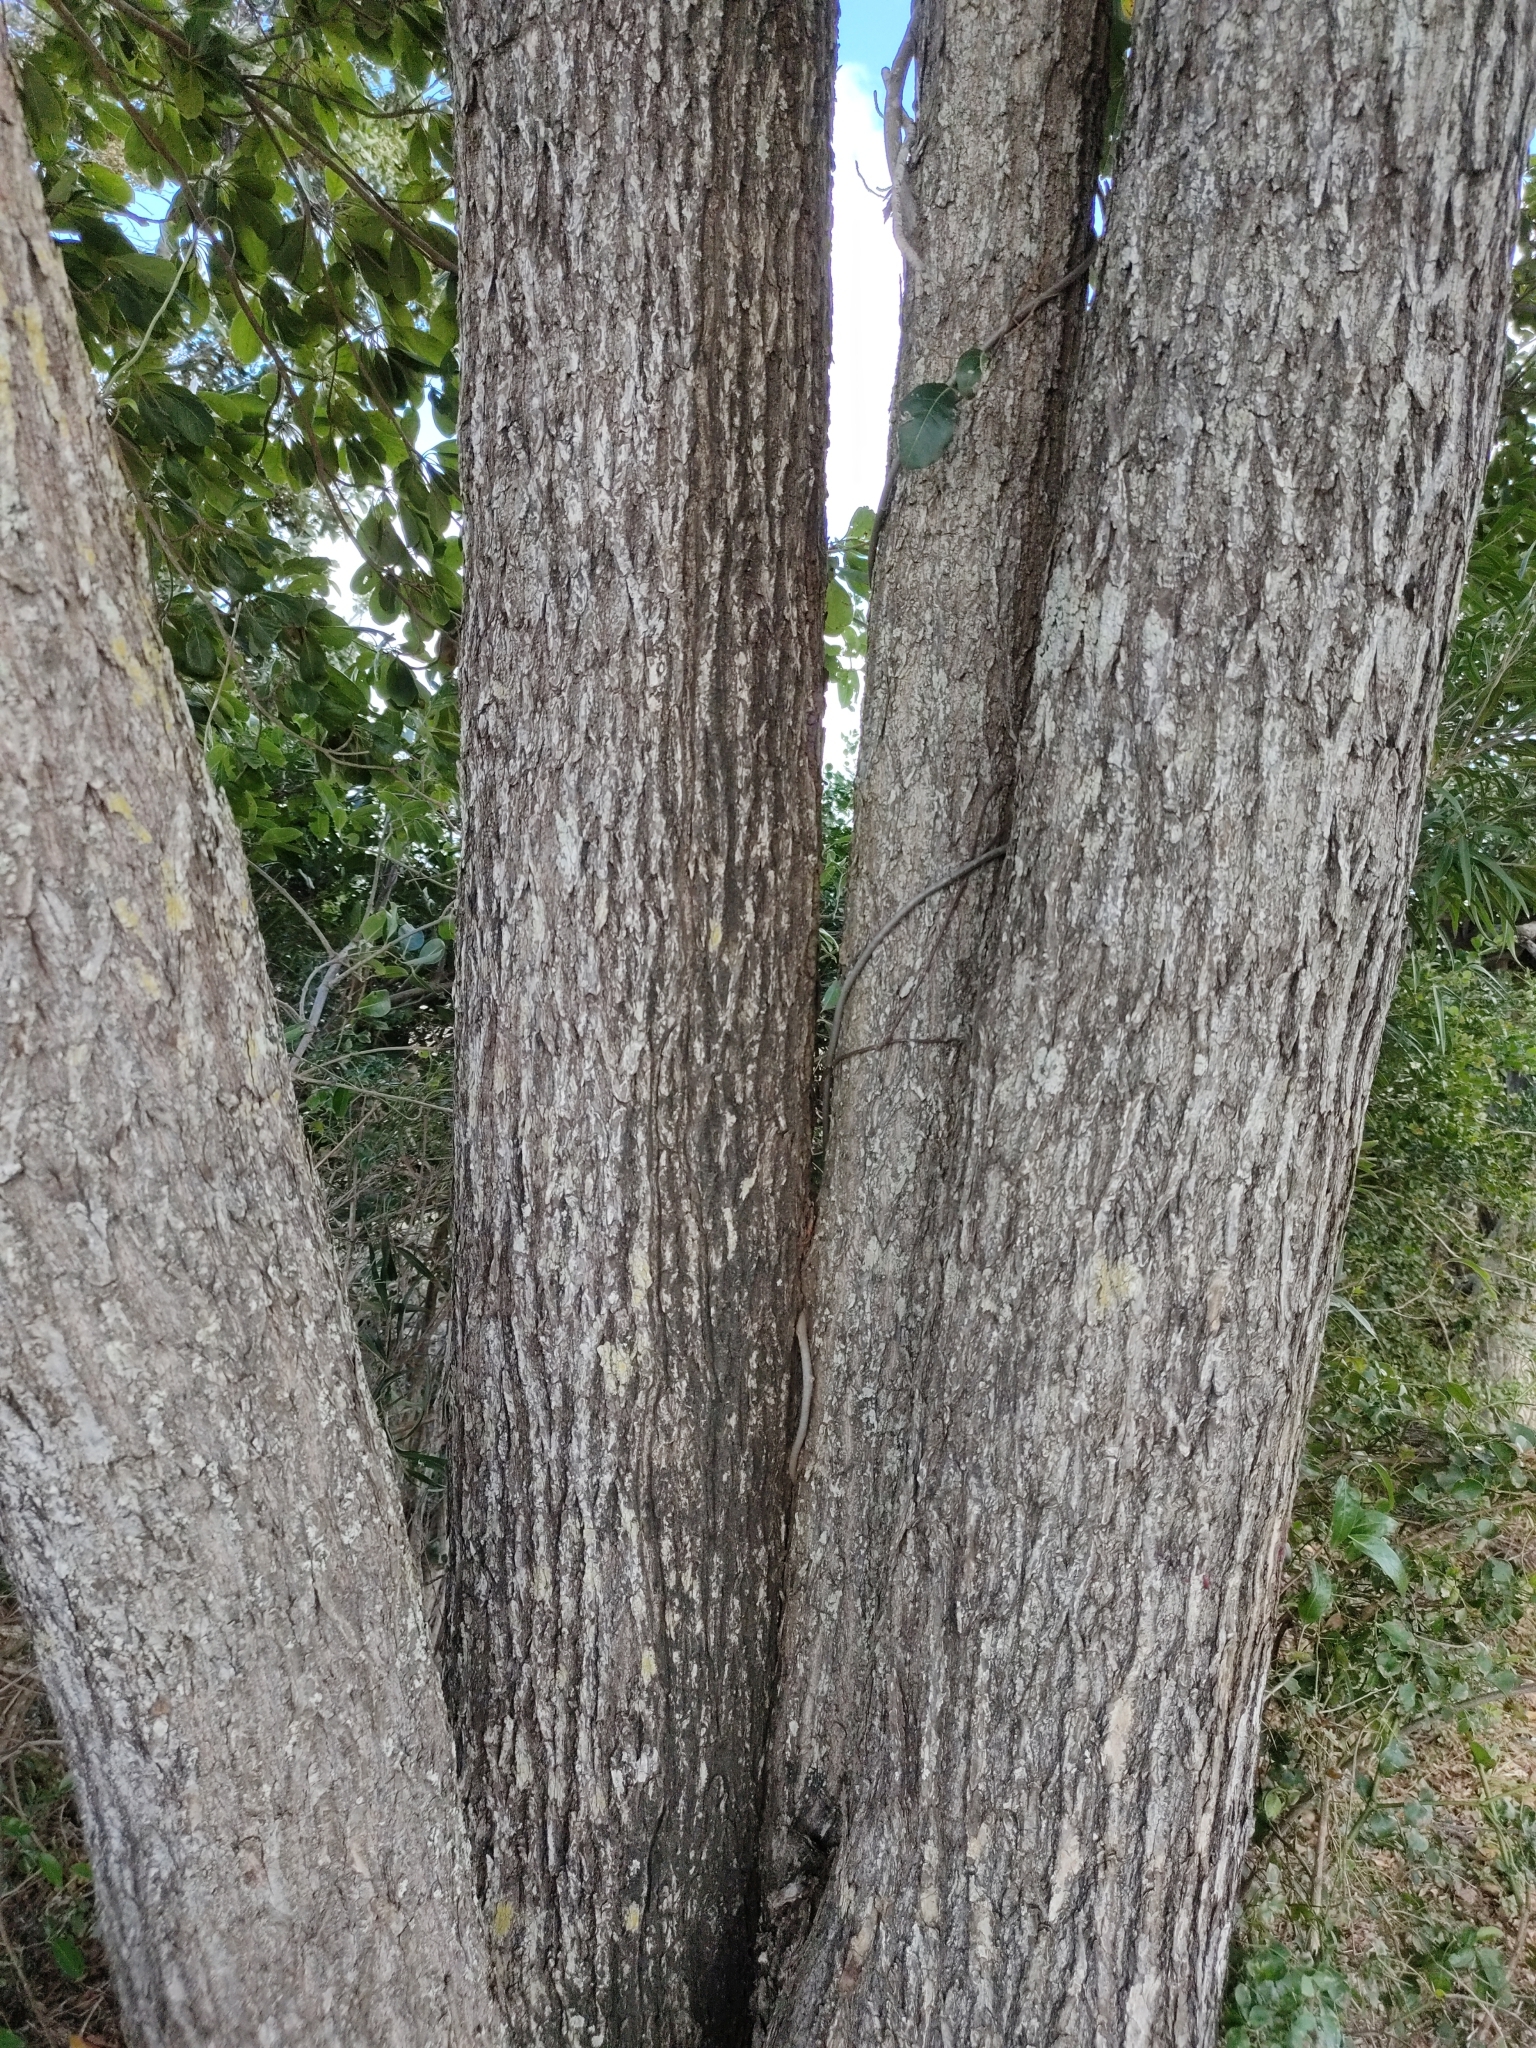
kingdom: Plantae
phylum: Tracheophyta
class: Magnoliopsida
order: Myrtales
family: Combretaceae
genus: Terminalia
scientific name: Terminalia porphyrocarpa
